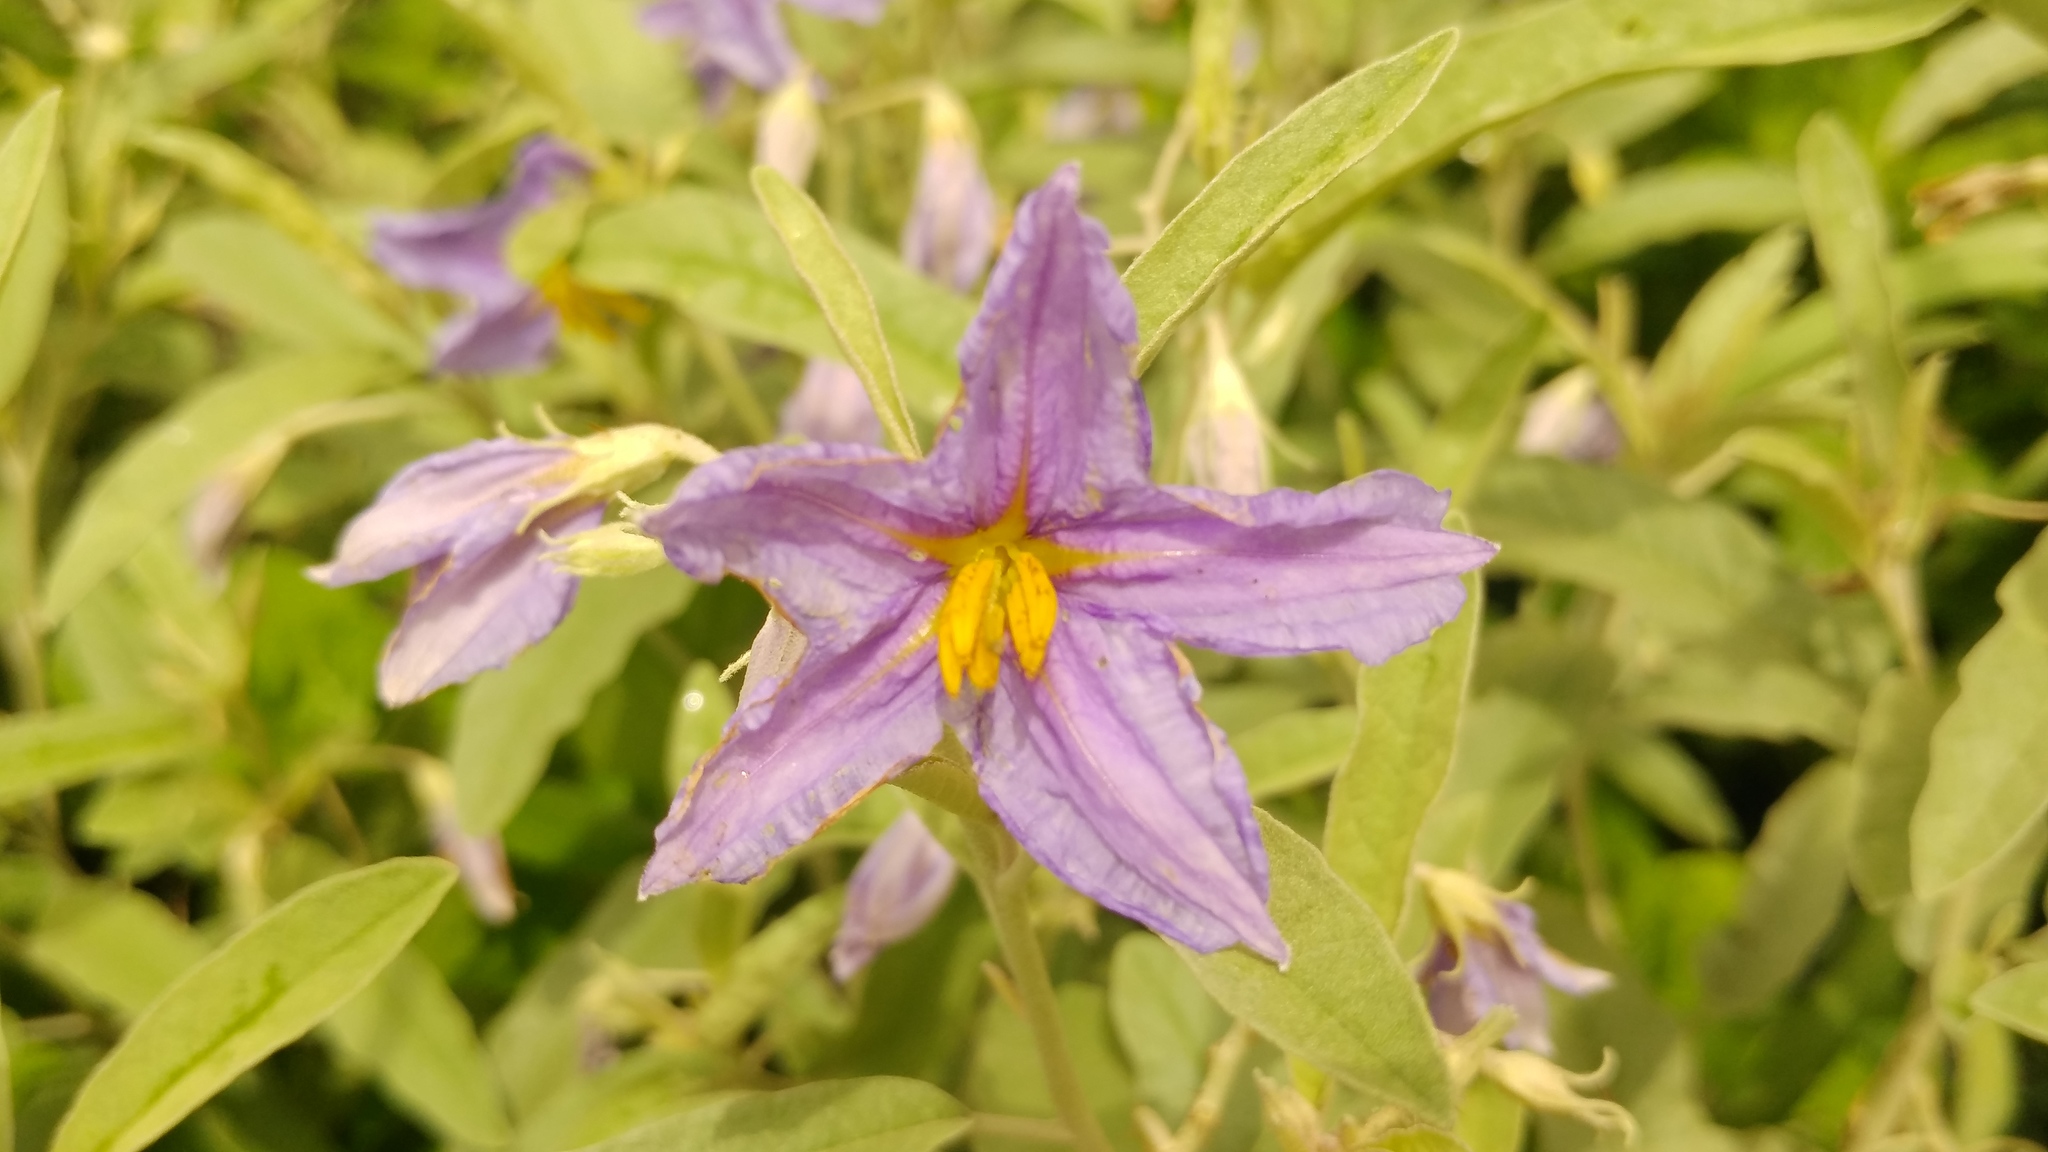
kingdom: Plantae
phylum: Tracheophyta
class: Magnoliopsida
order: Solanales
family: Solanaceae
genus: Solanum
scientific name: Solanum elaeagnifolium
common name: Silverleaf nightshade
